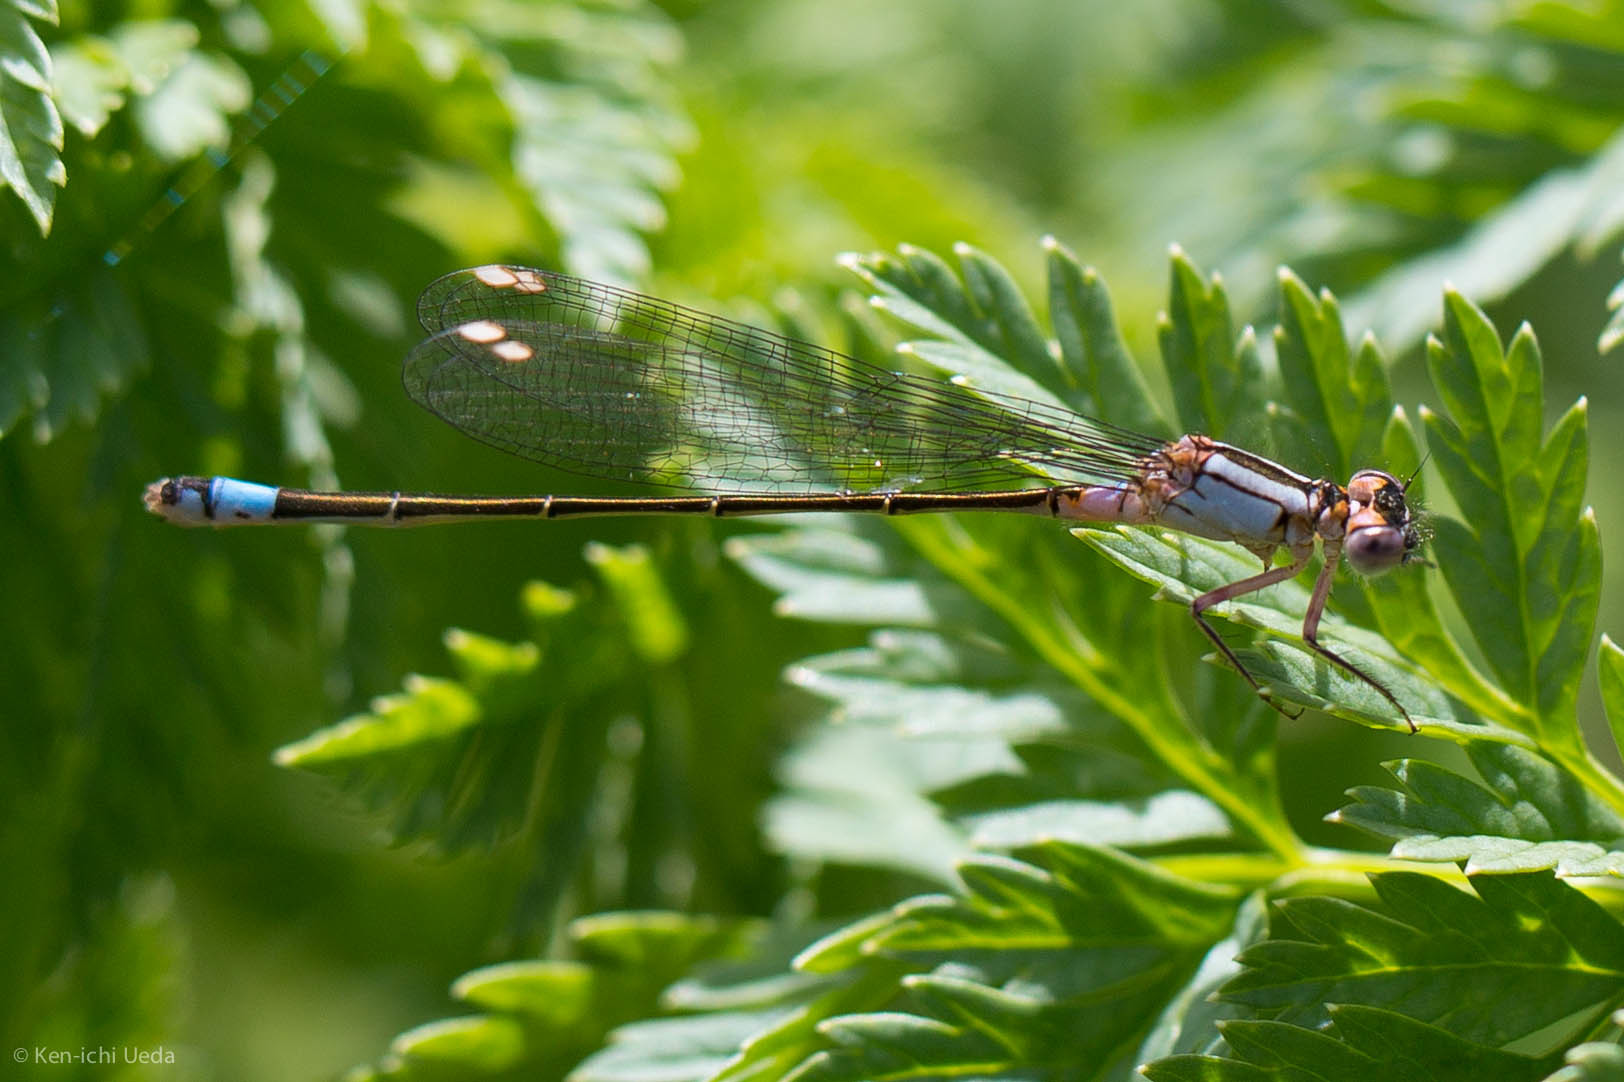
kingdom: Animalia
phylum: Arthropoda
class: Insecta
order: Odonata
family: Coenagrionidae
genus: Ischnura
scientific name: Ischnura cervula
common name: Pacific forktail
